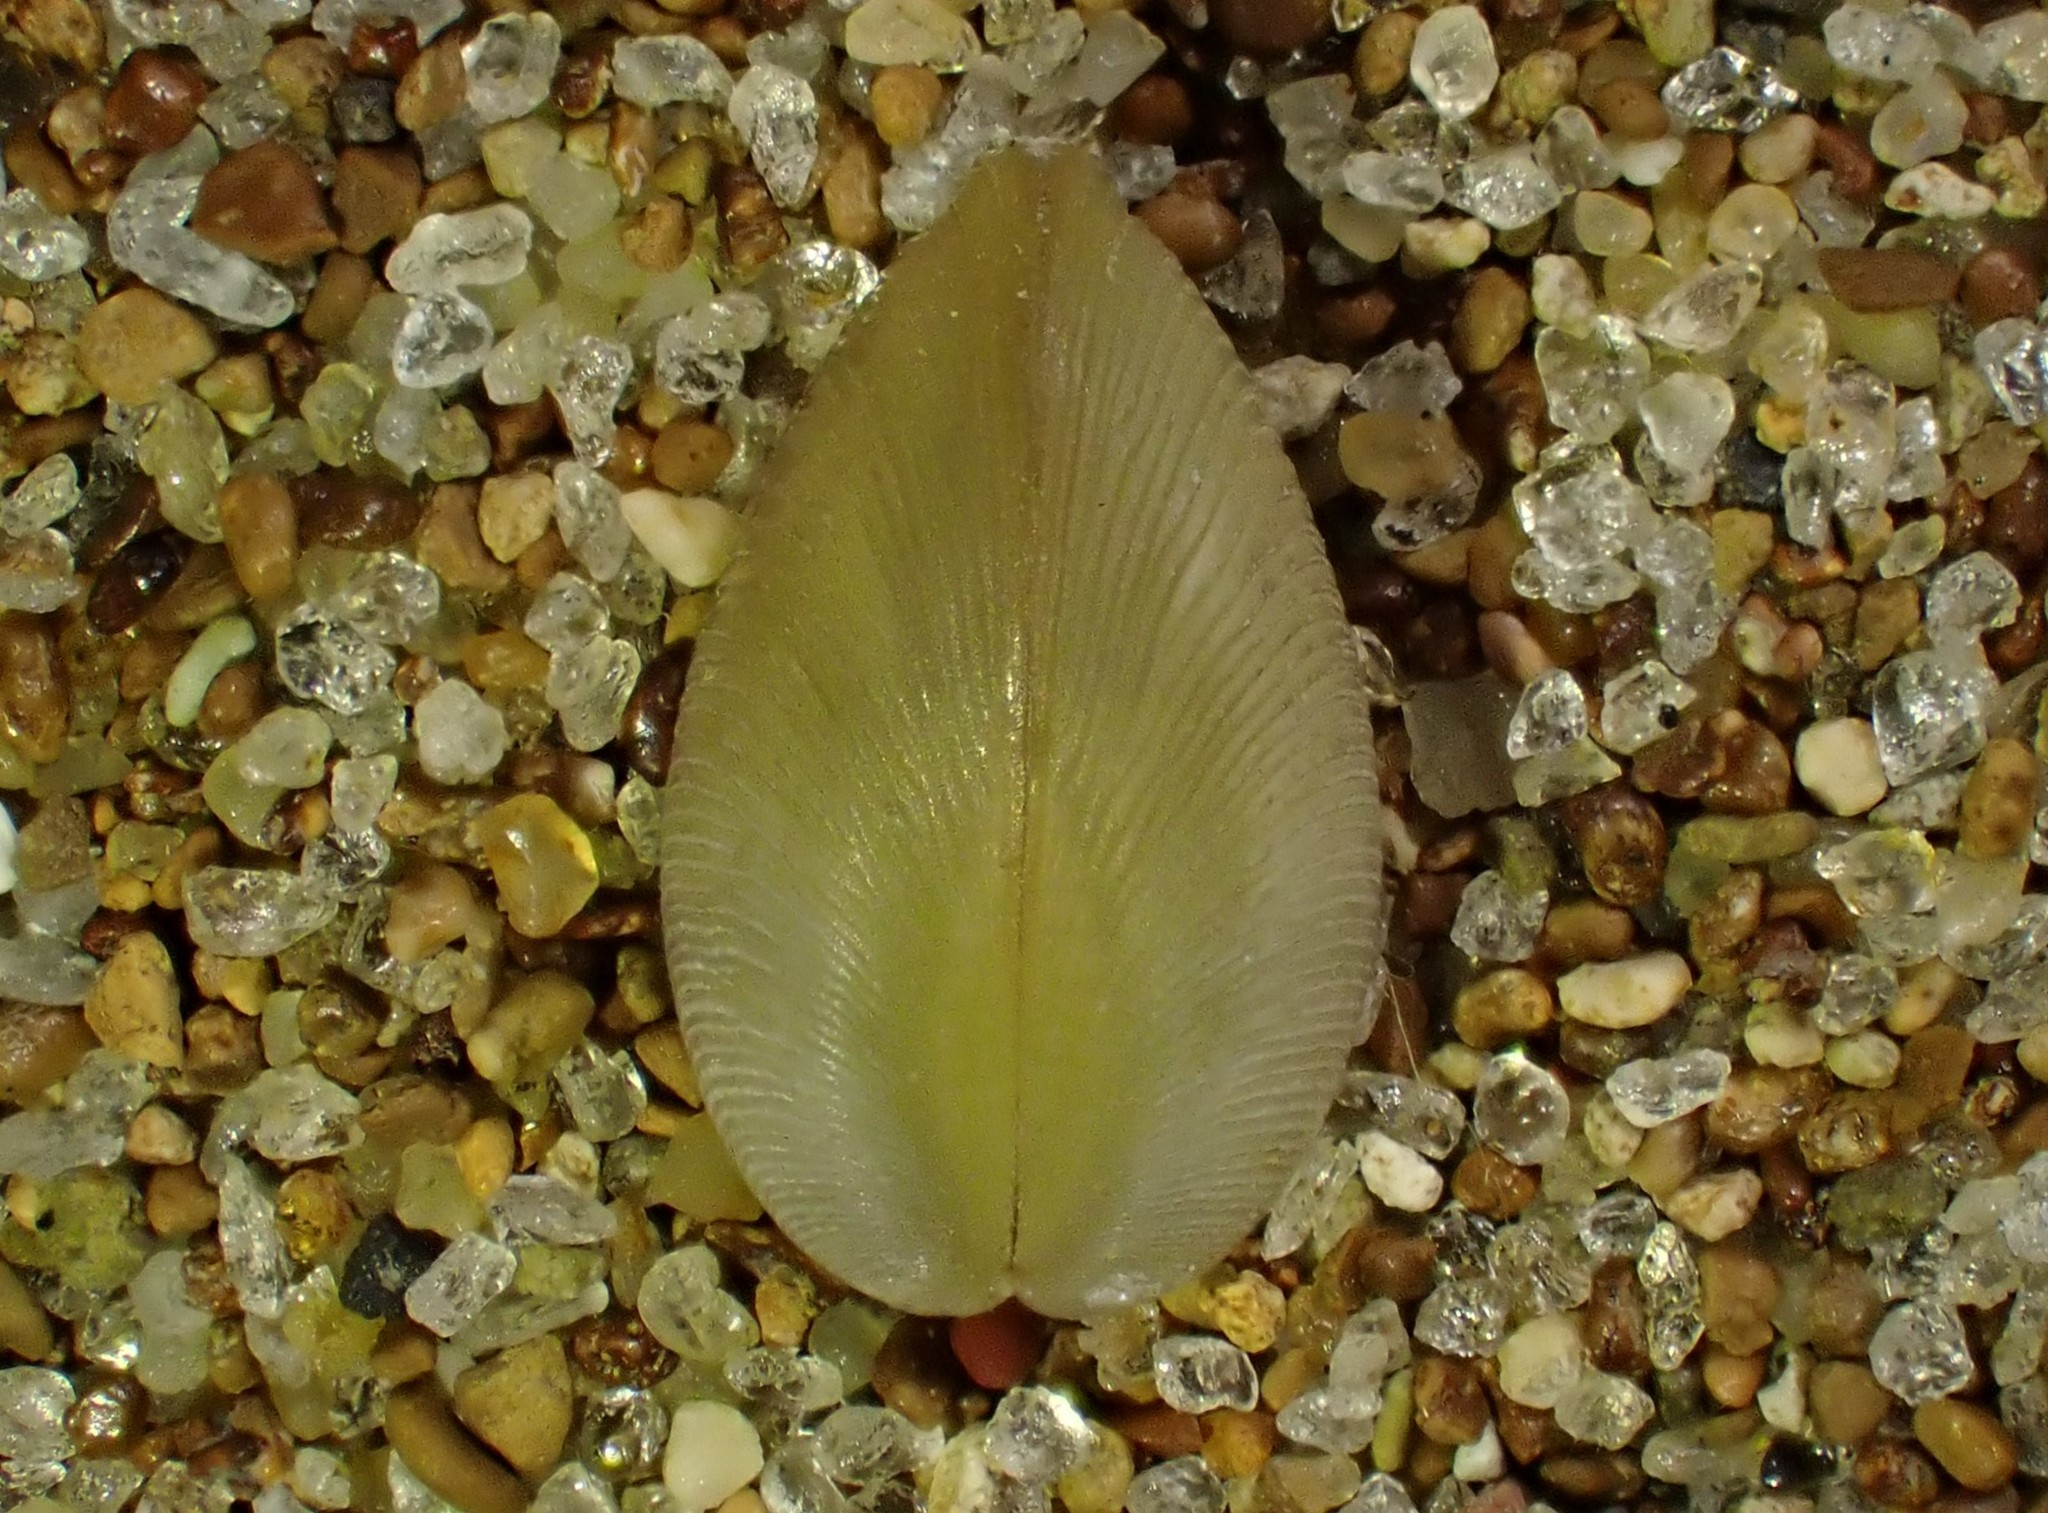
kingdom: Animalia
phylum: Mollusca
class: Bivalvia
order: Nuculida
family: Nuculidae
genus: Linucula
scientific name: Linucula hartvigiana
